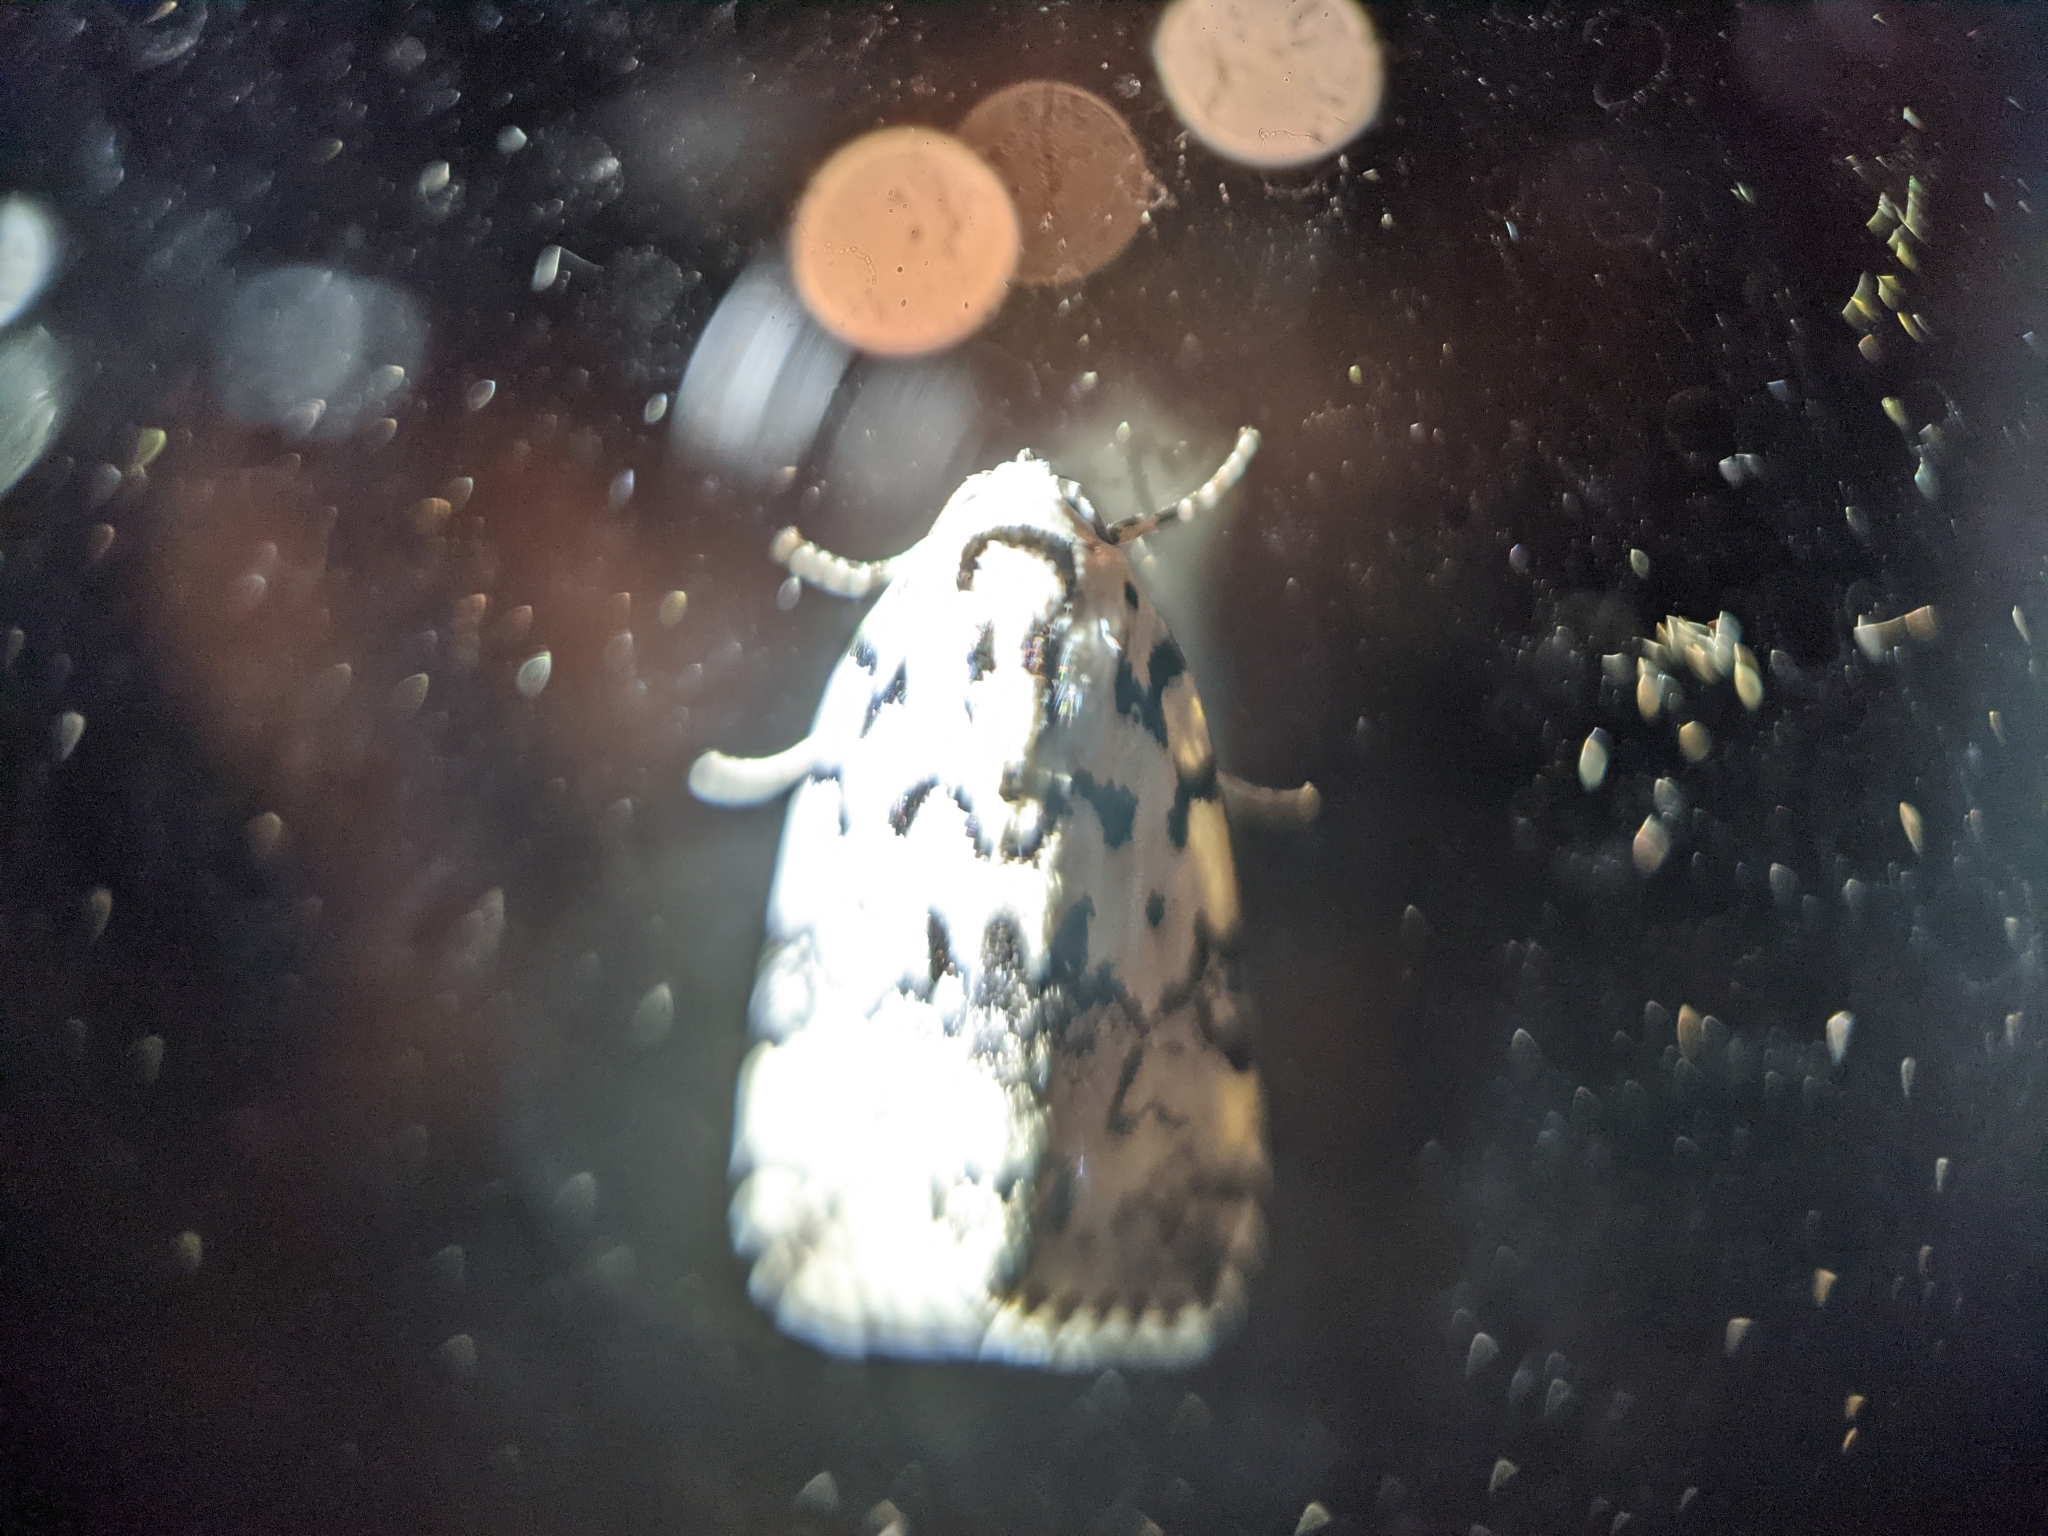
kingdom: Animalia
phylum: Arthropoda
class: Insecta
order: Lepidoptera
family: Noctuidae
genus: Polygrammate
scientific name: Polygrammate hebraeicum
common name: Hebrew moth
